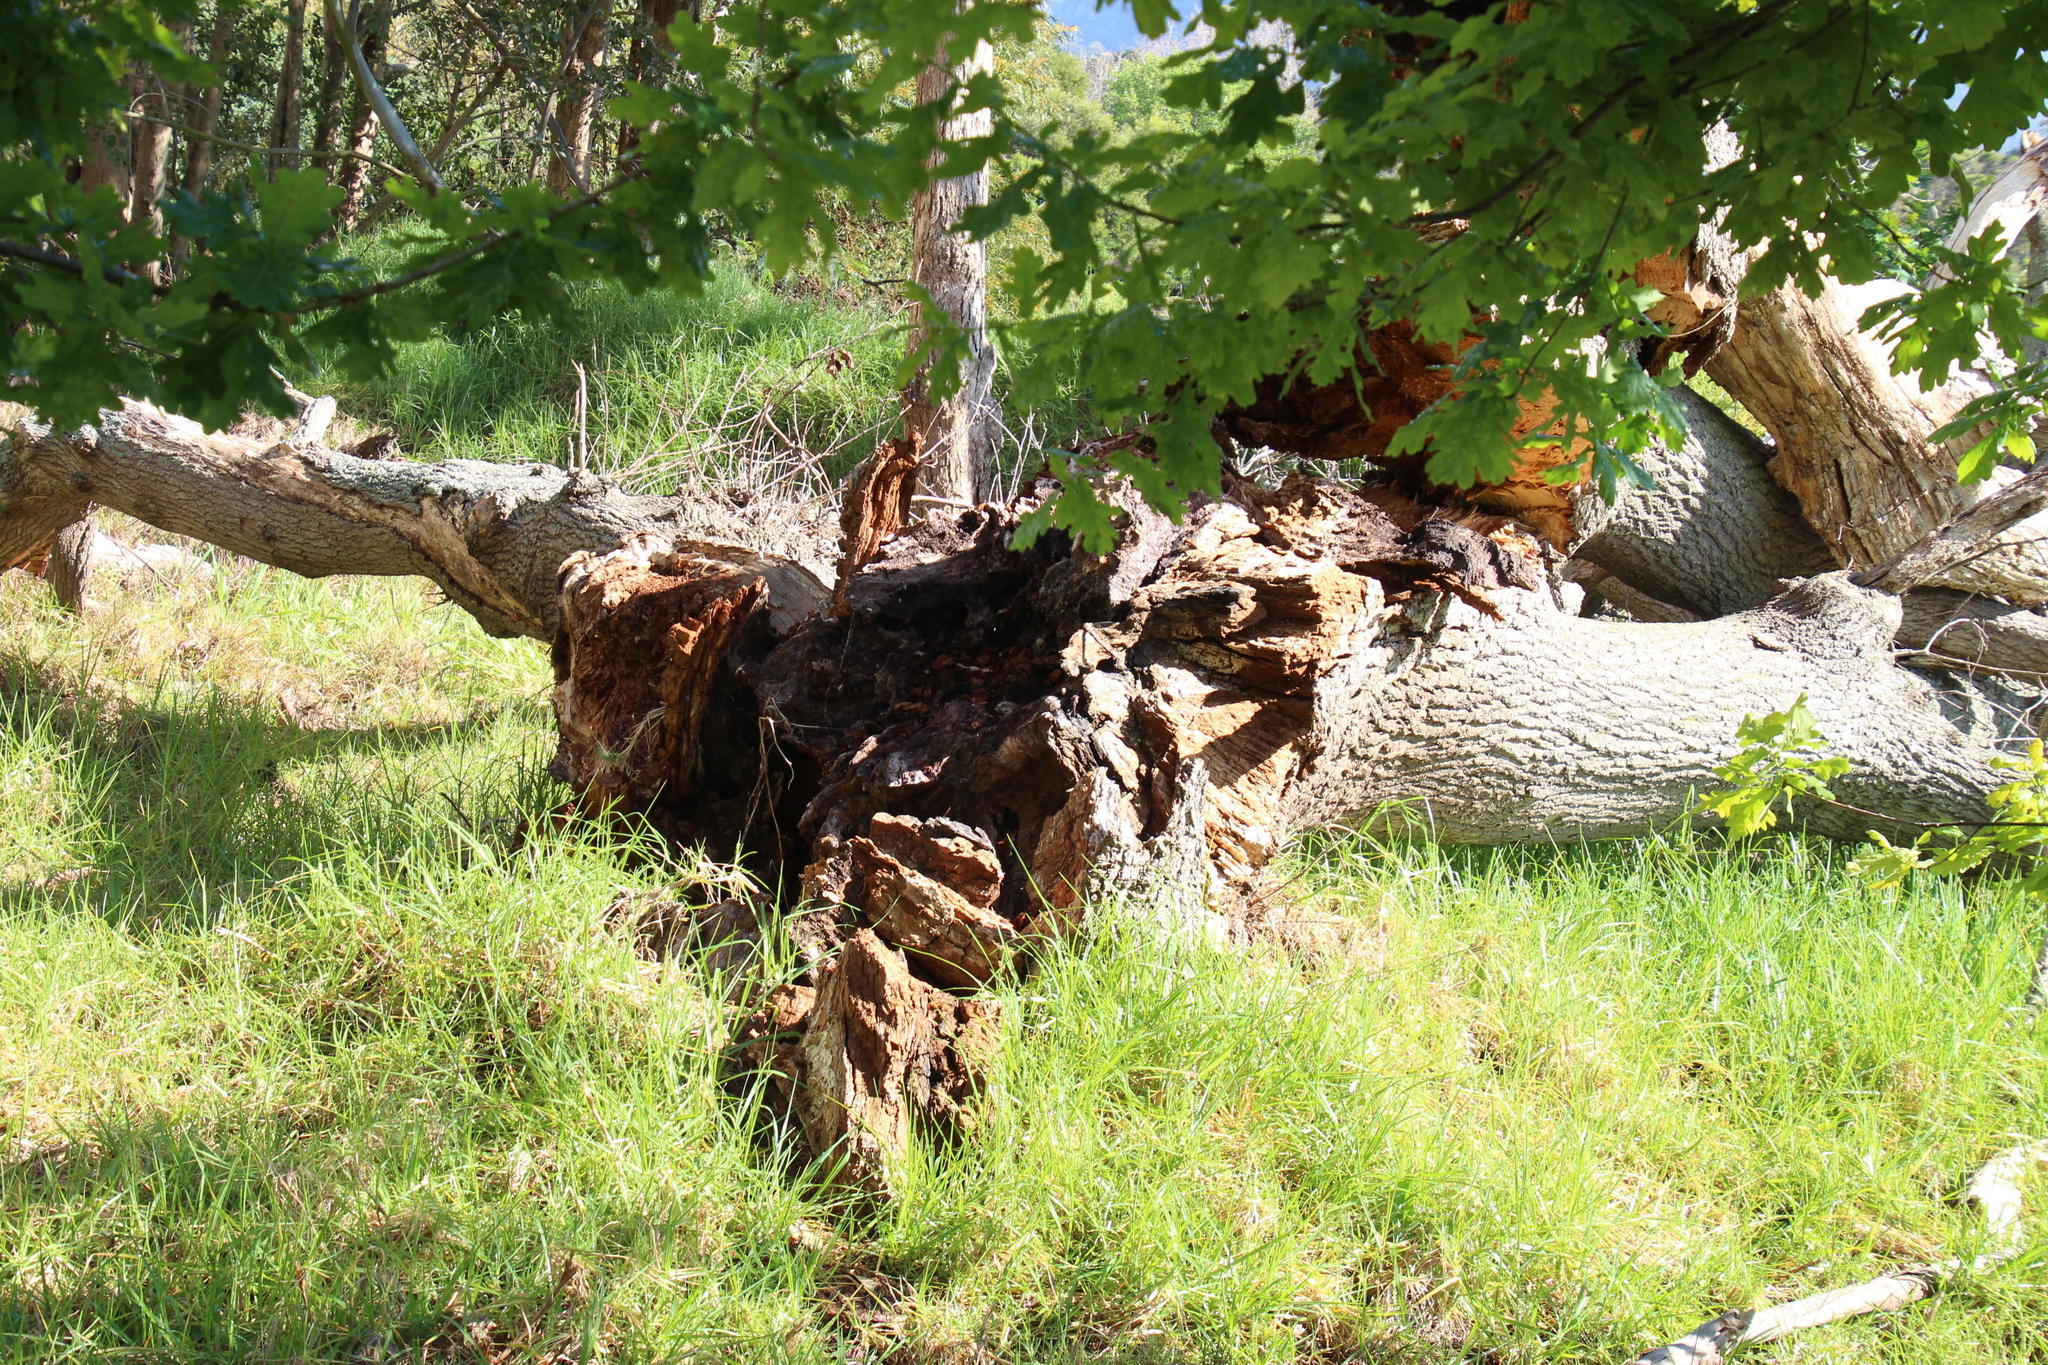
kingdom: Plantae
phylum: Tracheophyta
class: Magnoliopsida
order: Fagales
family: Fagaceae
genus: Quercus
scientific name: Quercus robur
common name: Pedunculate oak
